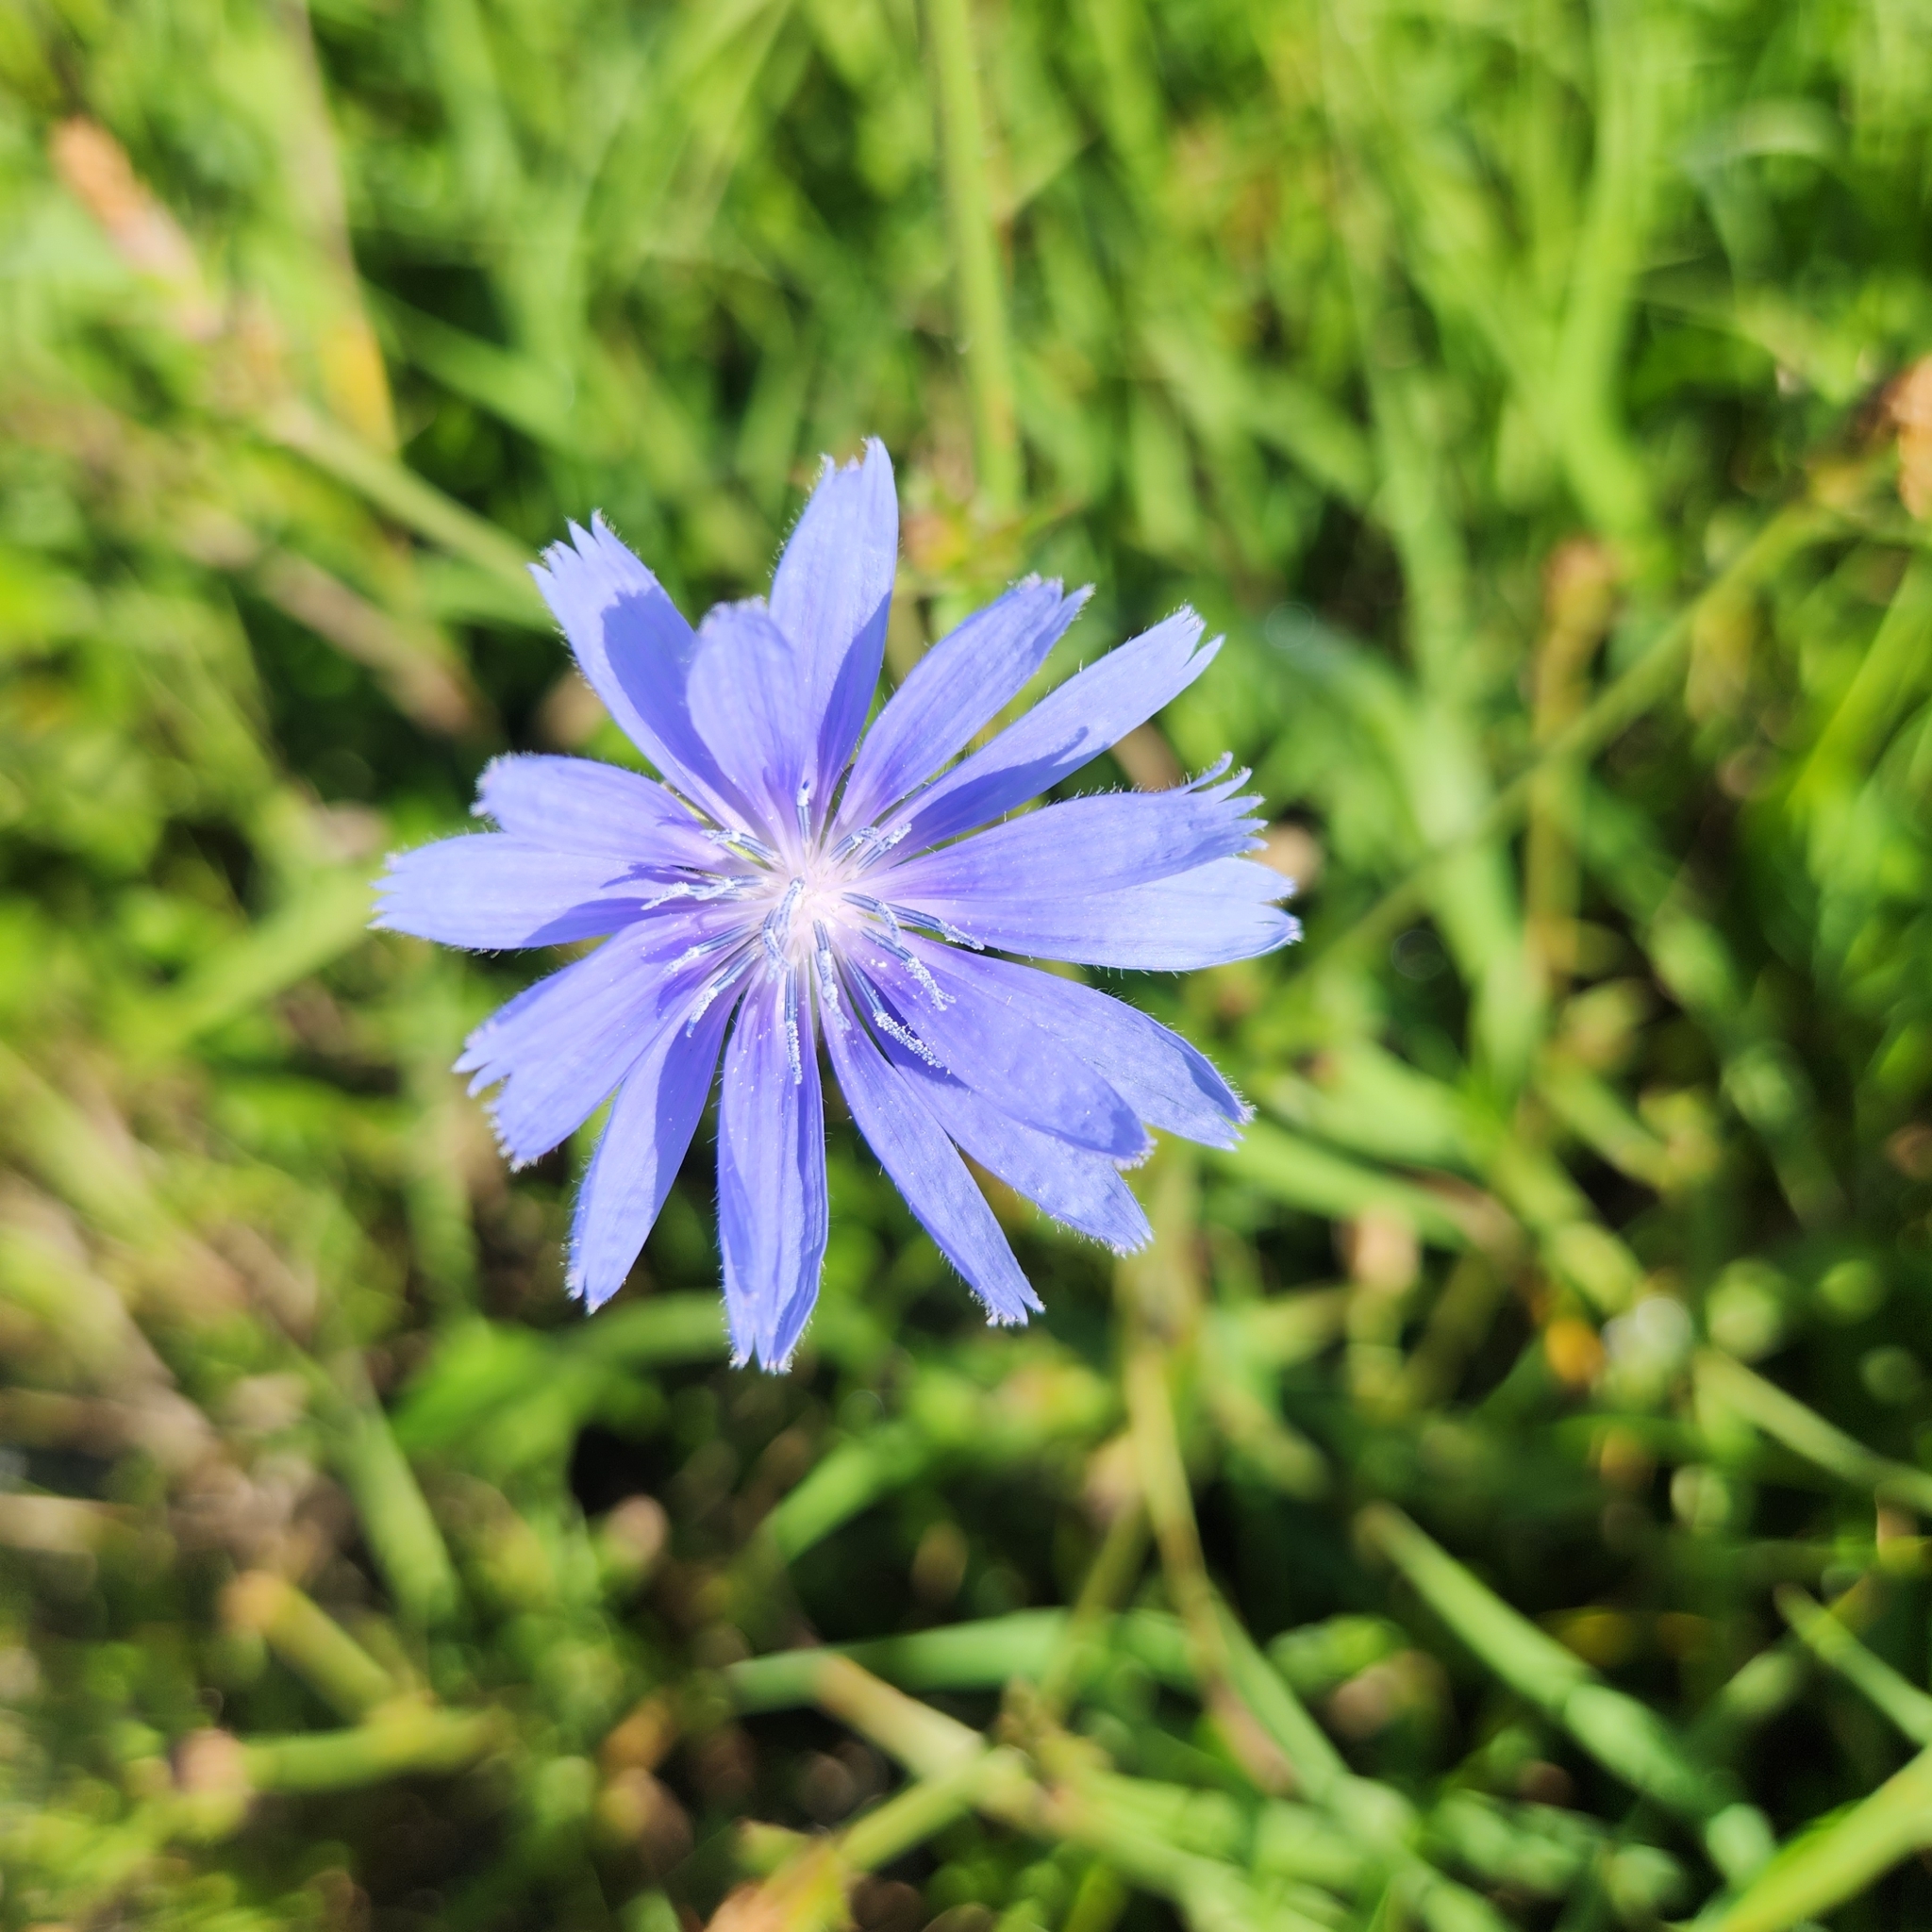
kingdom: Plantae
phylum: Tracheophyta
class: Magnoliopsida
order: Asterales
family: Asteraceae
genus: Cichorium
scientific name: Cichorium intybus
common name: Chicory
